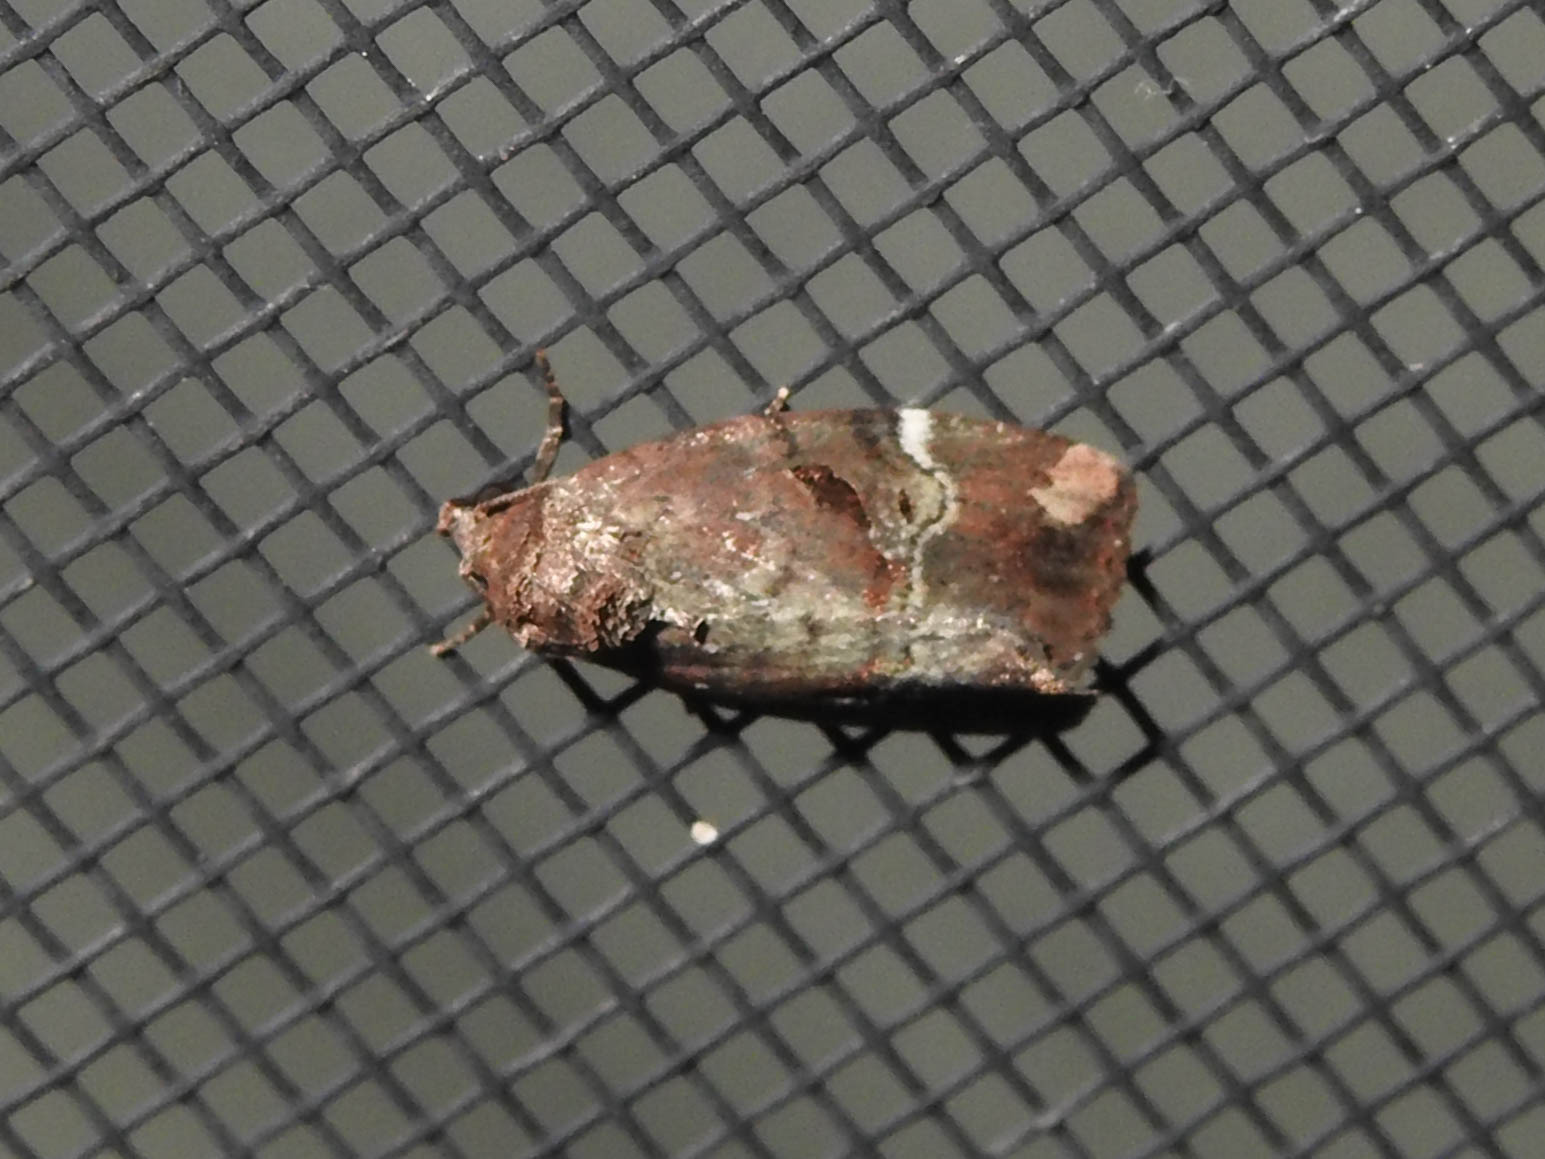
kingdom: Animalia
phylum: Arthropoda
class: Insecta
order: Lepidoptera
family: Noctuidae
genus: Elaphria
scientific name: Elaphria versicolor
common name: Fir harlequin
